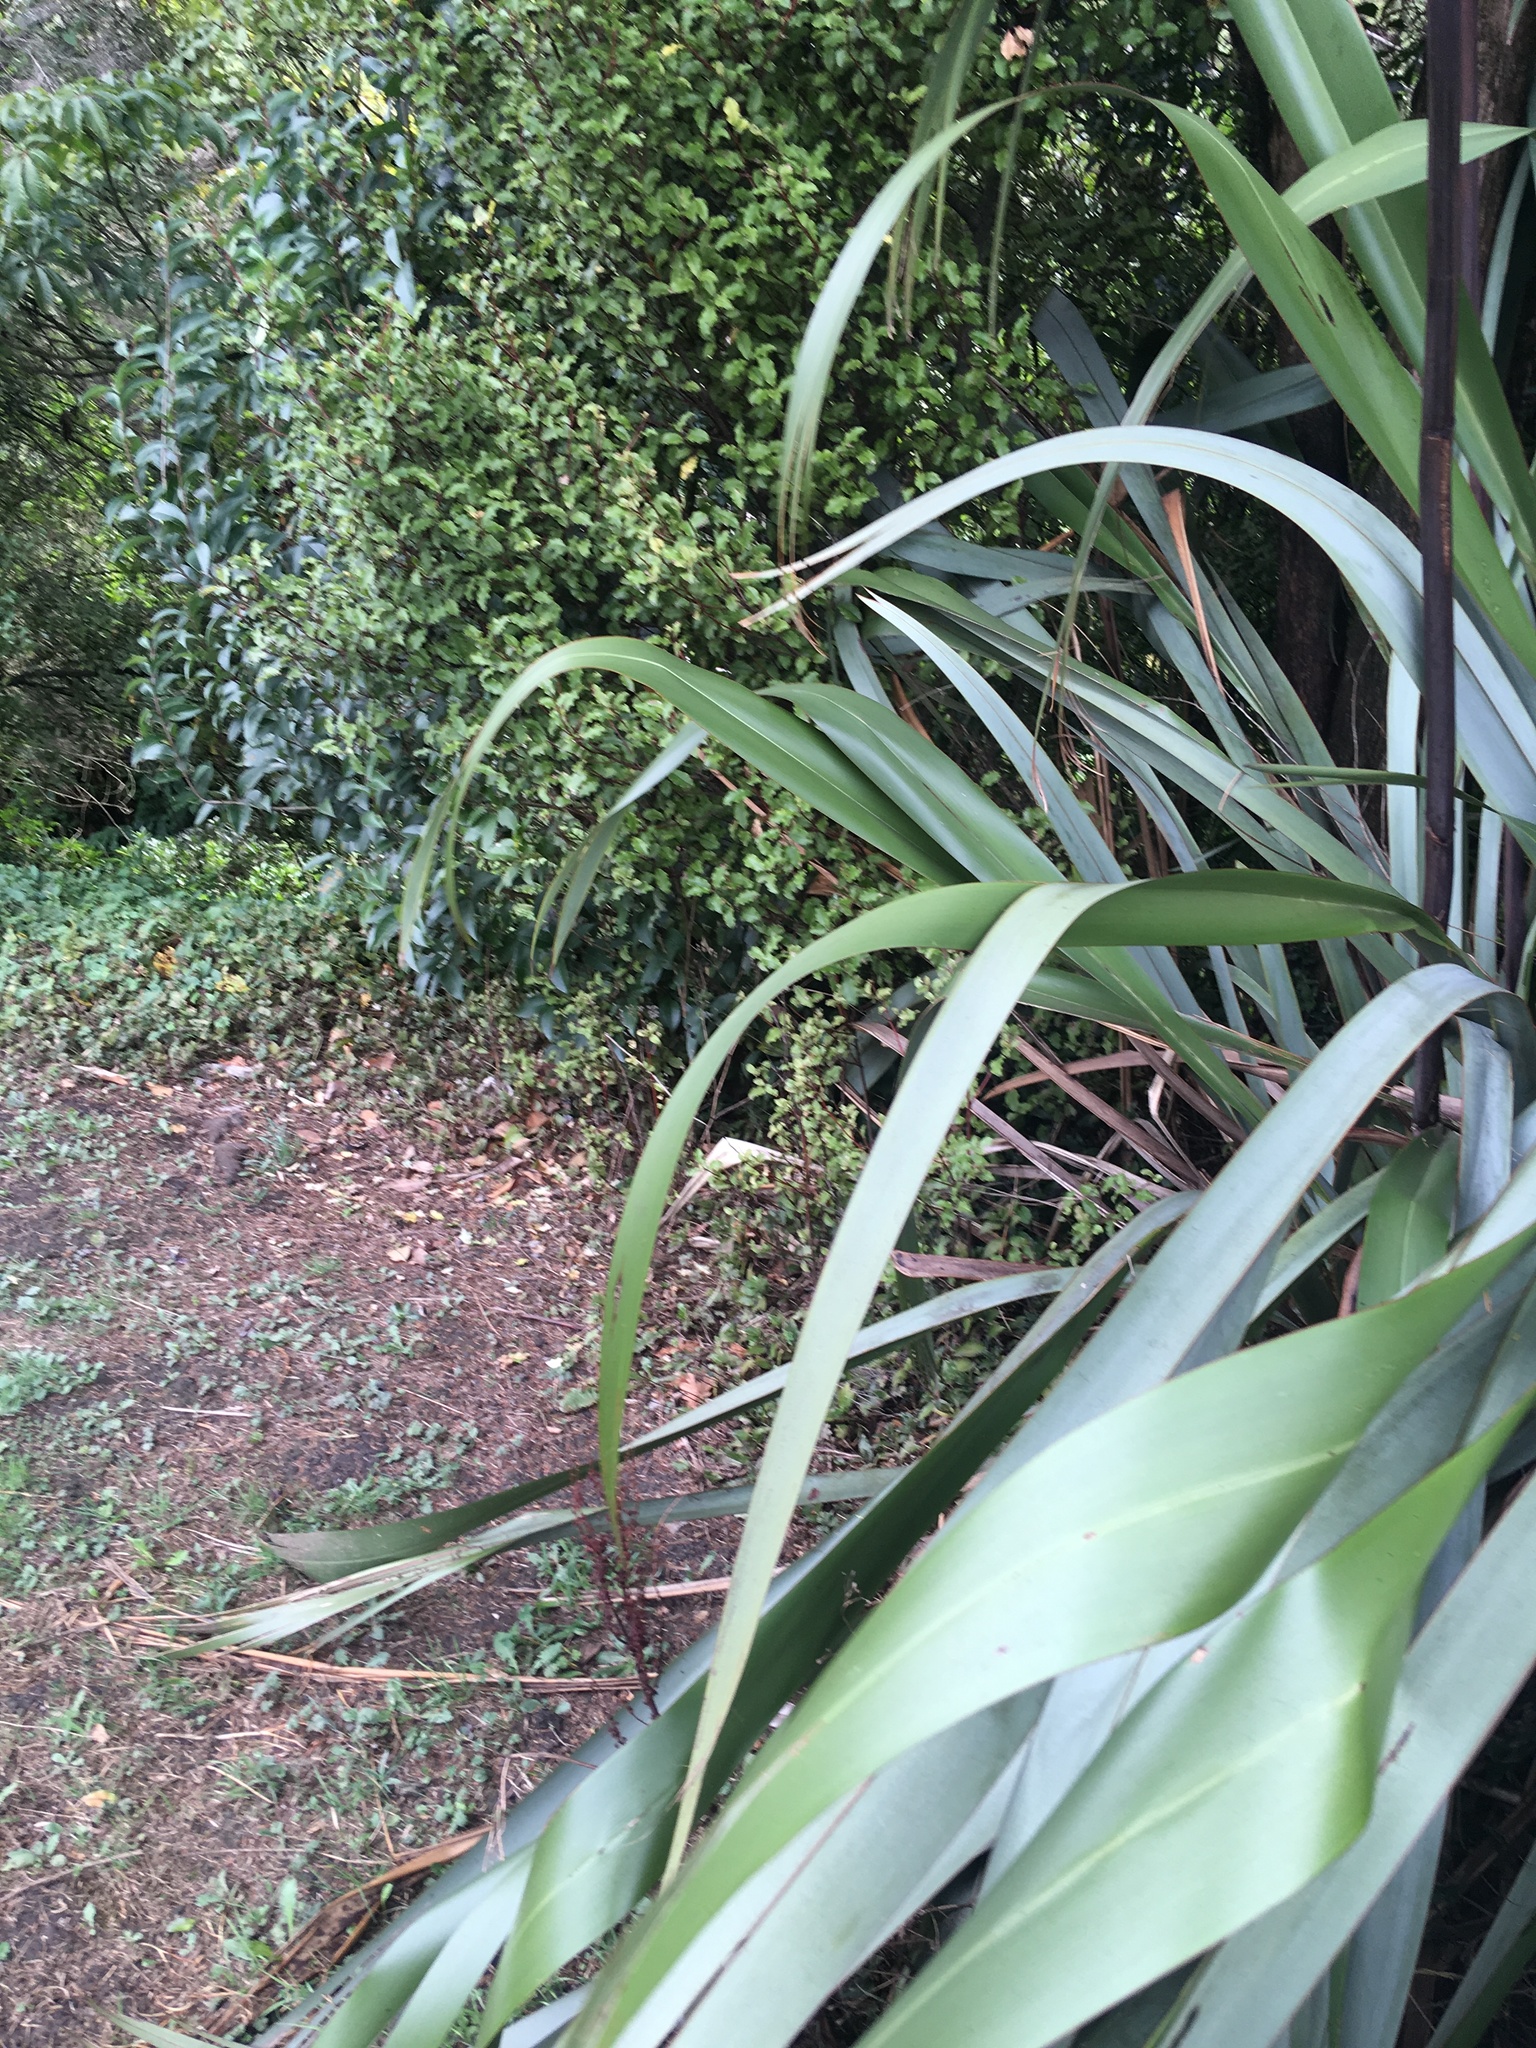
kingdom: Plantae
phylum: Tracheophyta
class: Liliopsida
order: Asparagales
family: Asphodelaceae
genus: Phormium
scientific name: Phormium tenax
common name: New zealand flax
